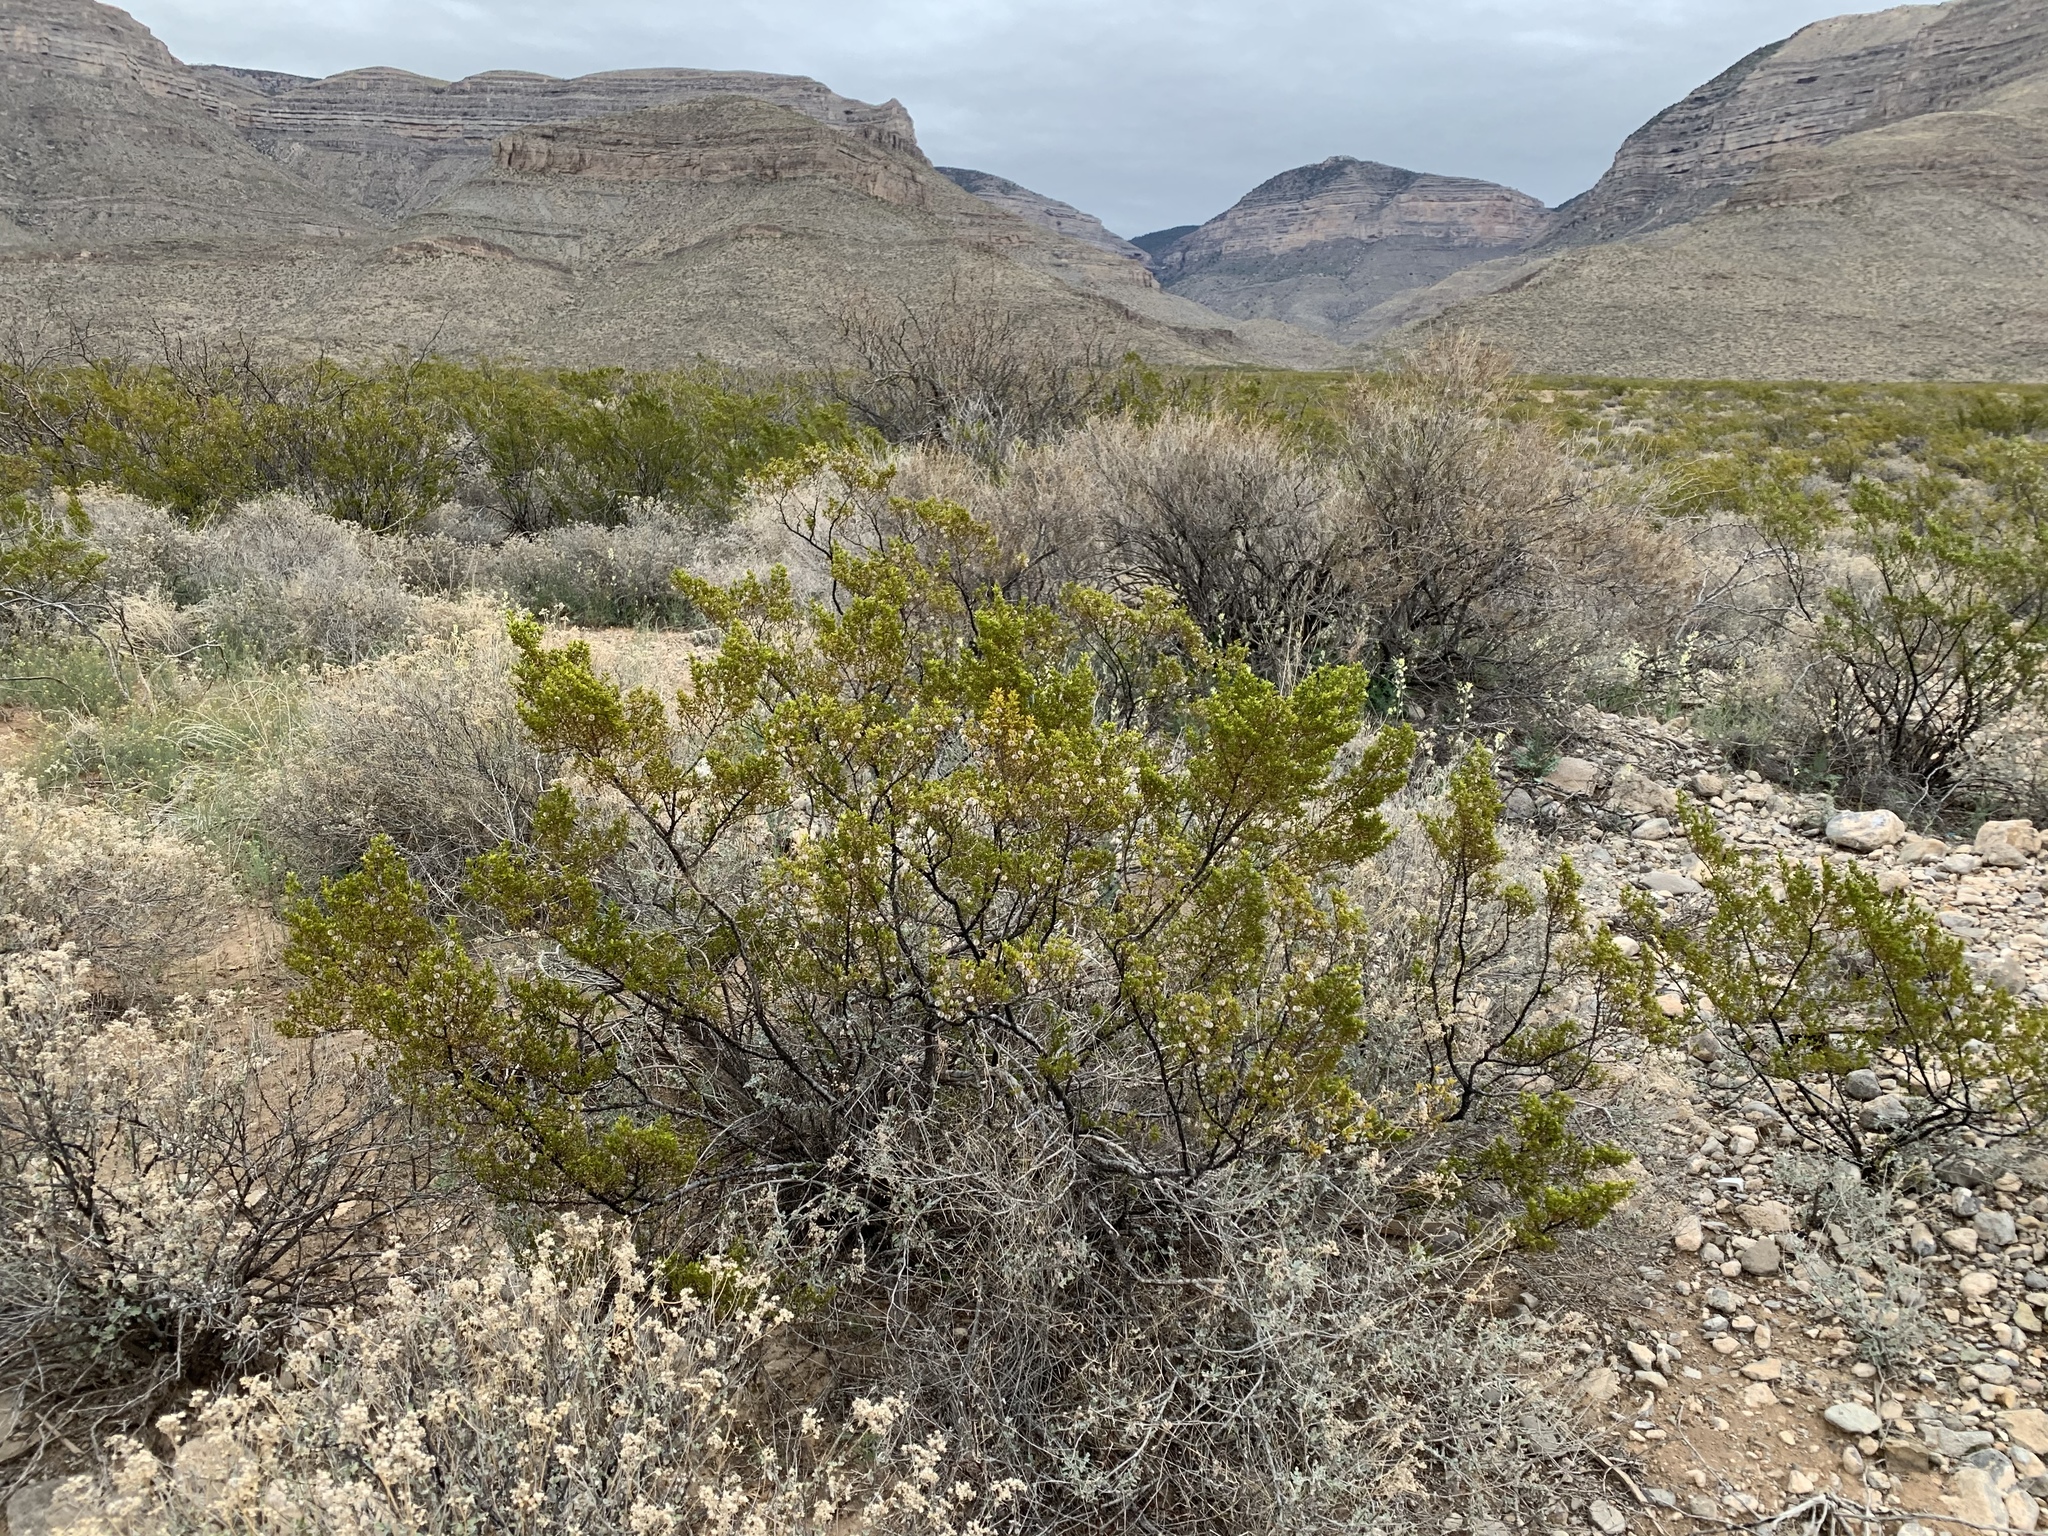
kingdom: Plantae
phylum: Tracheophyta
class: Magnoliopsida
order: Zygophyllales
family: Zygophyllaceae
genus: Larrea
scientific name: Larrea tridentata
